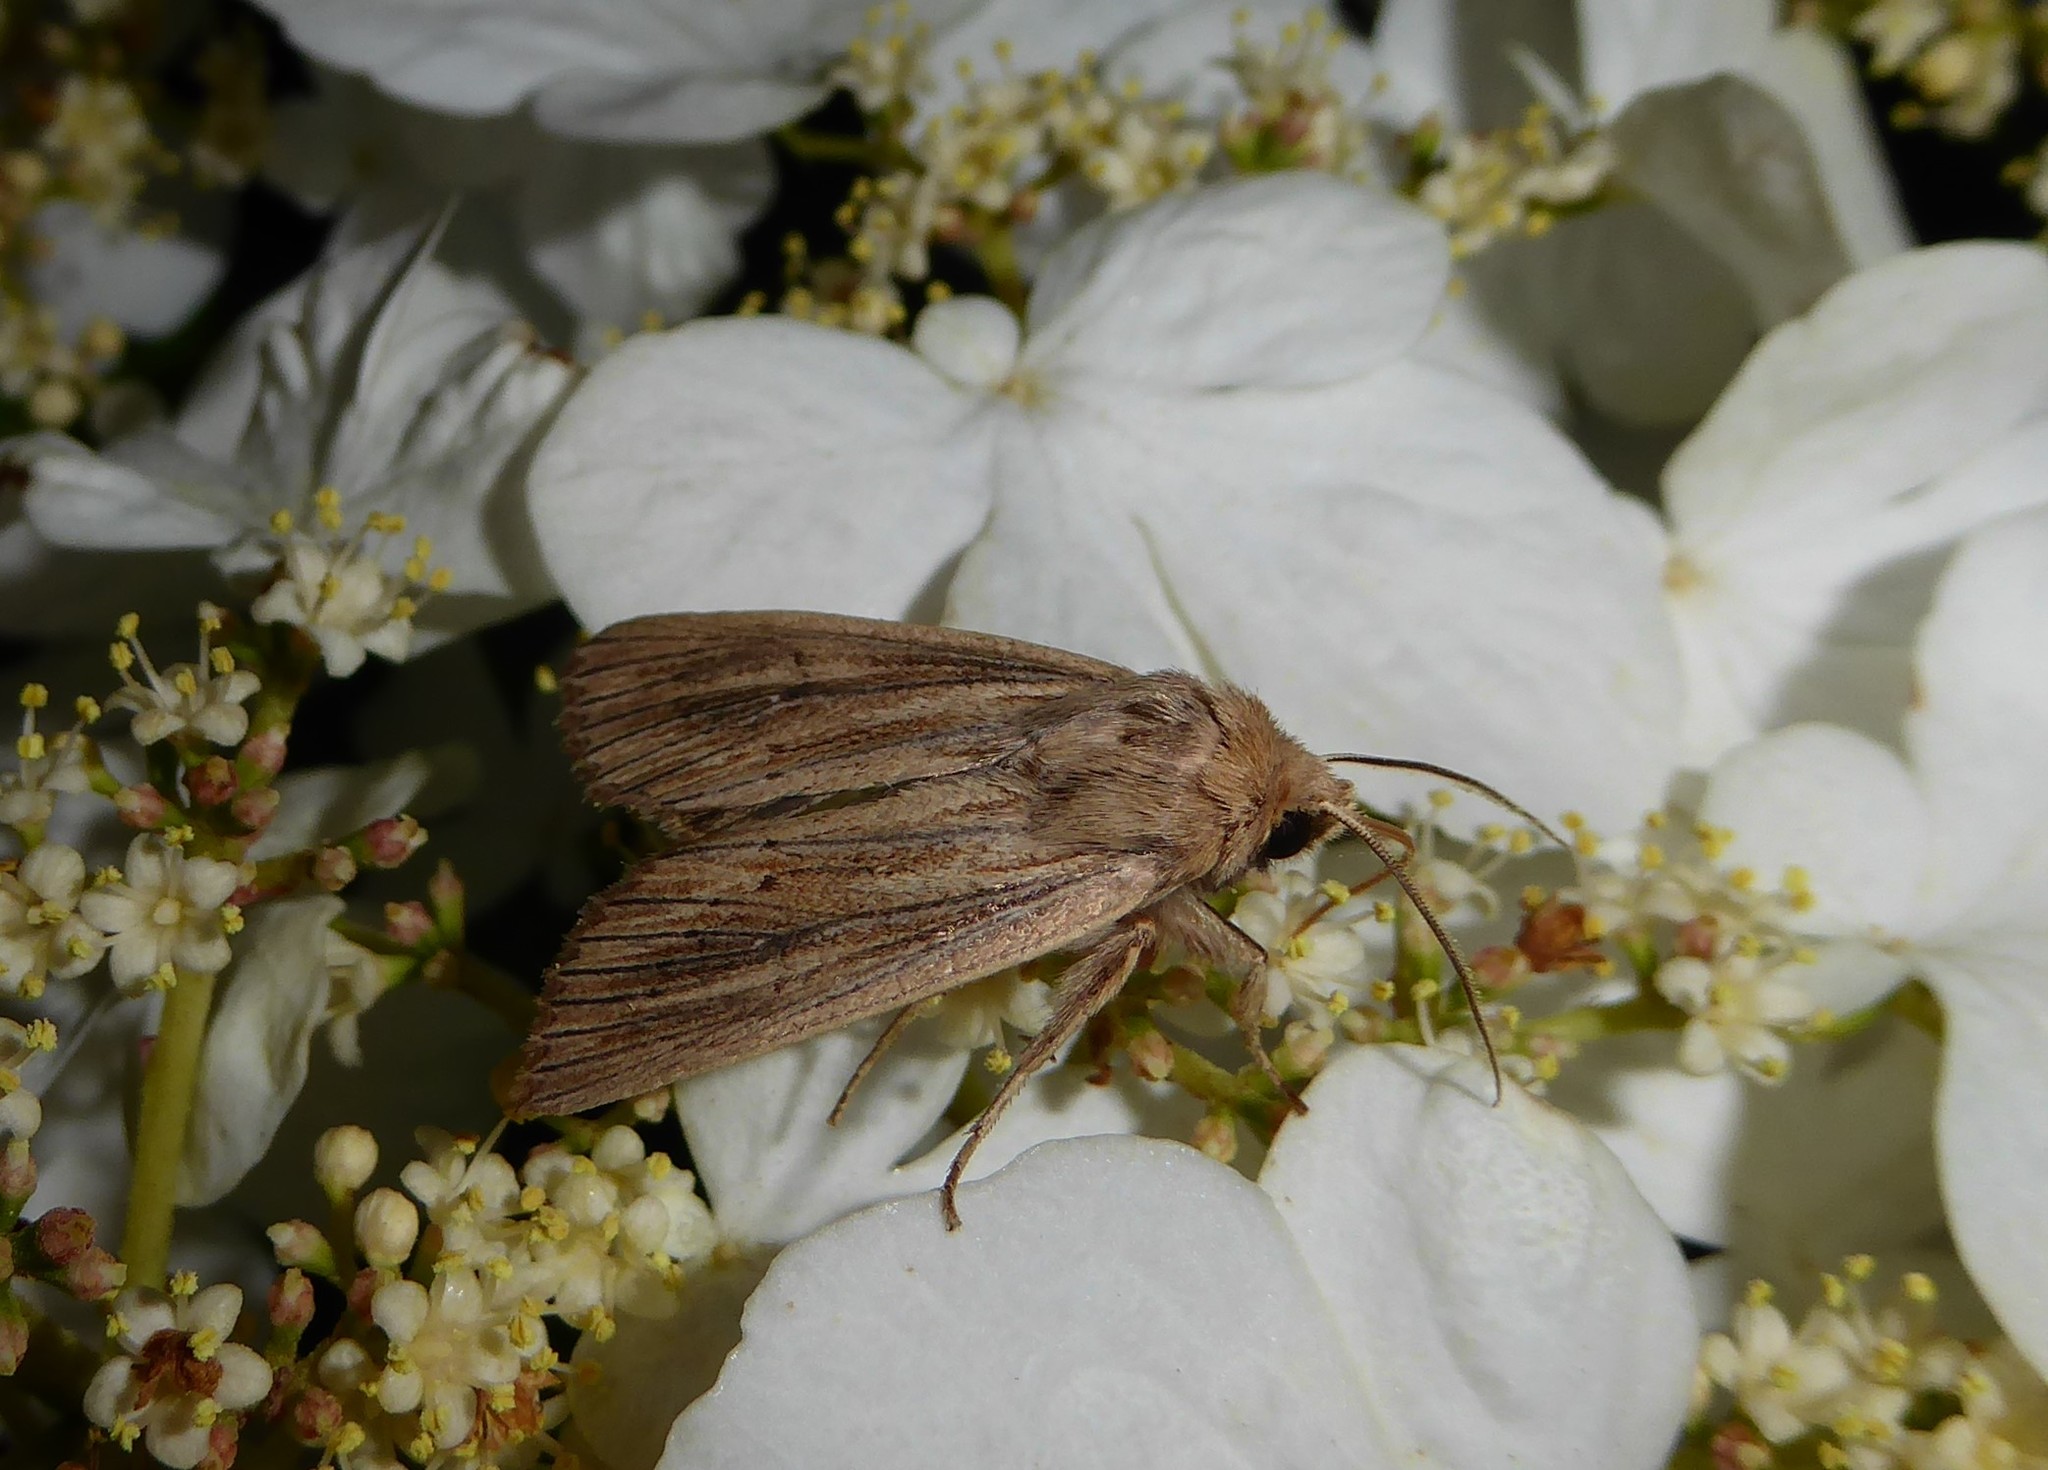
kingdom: Animalia
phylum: Arthropoda
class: Insecta
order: Lepidoptera
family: Noctuidae
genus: Ichneutica
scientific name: Ichneutica arotis
